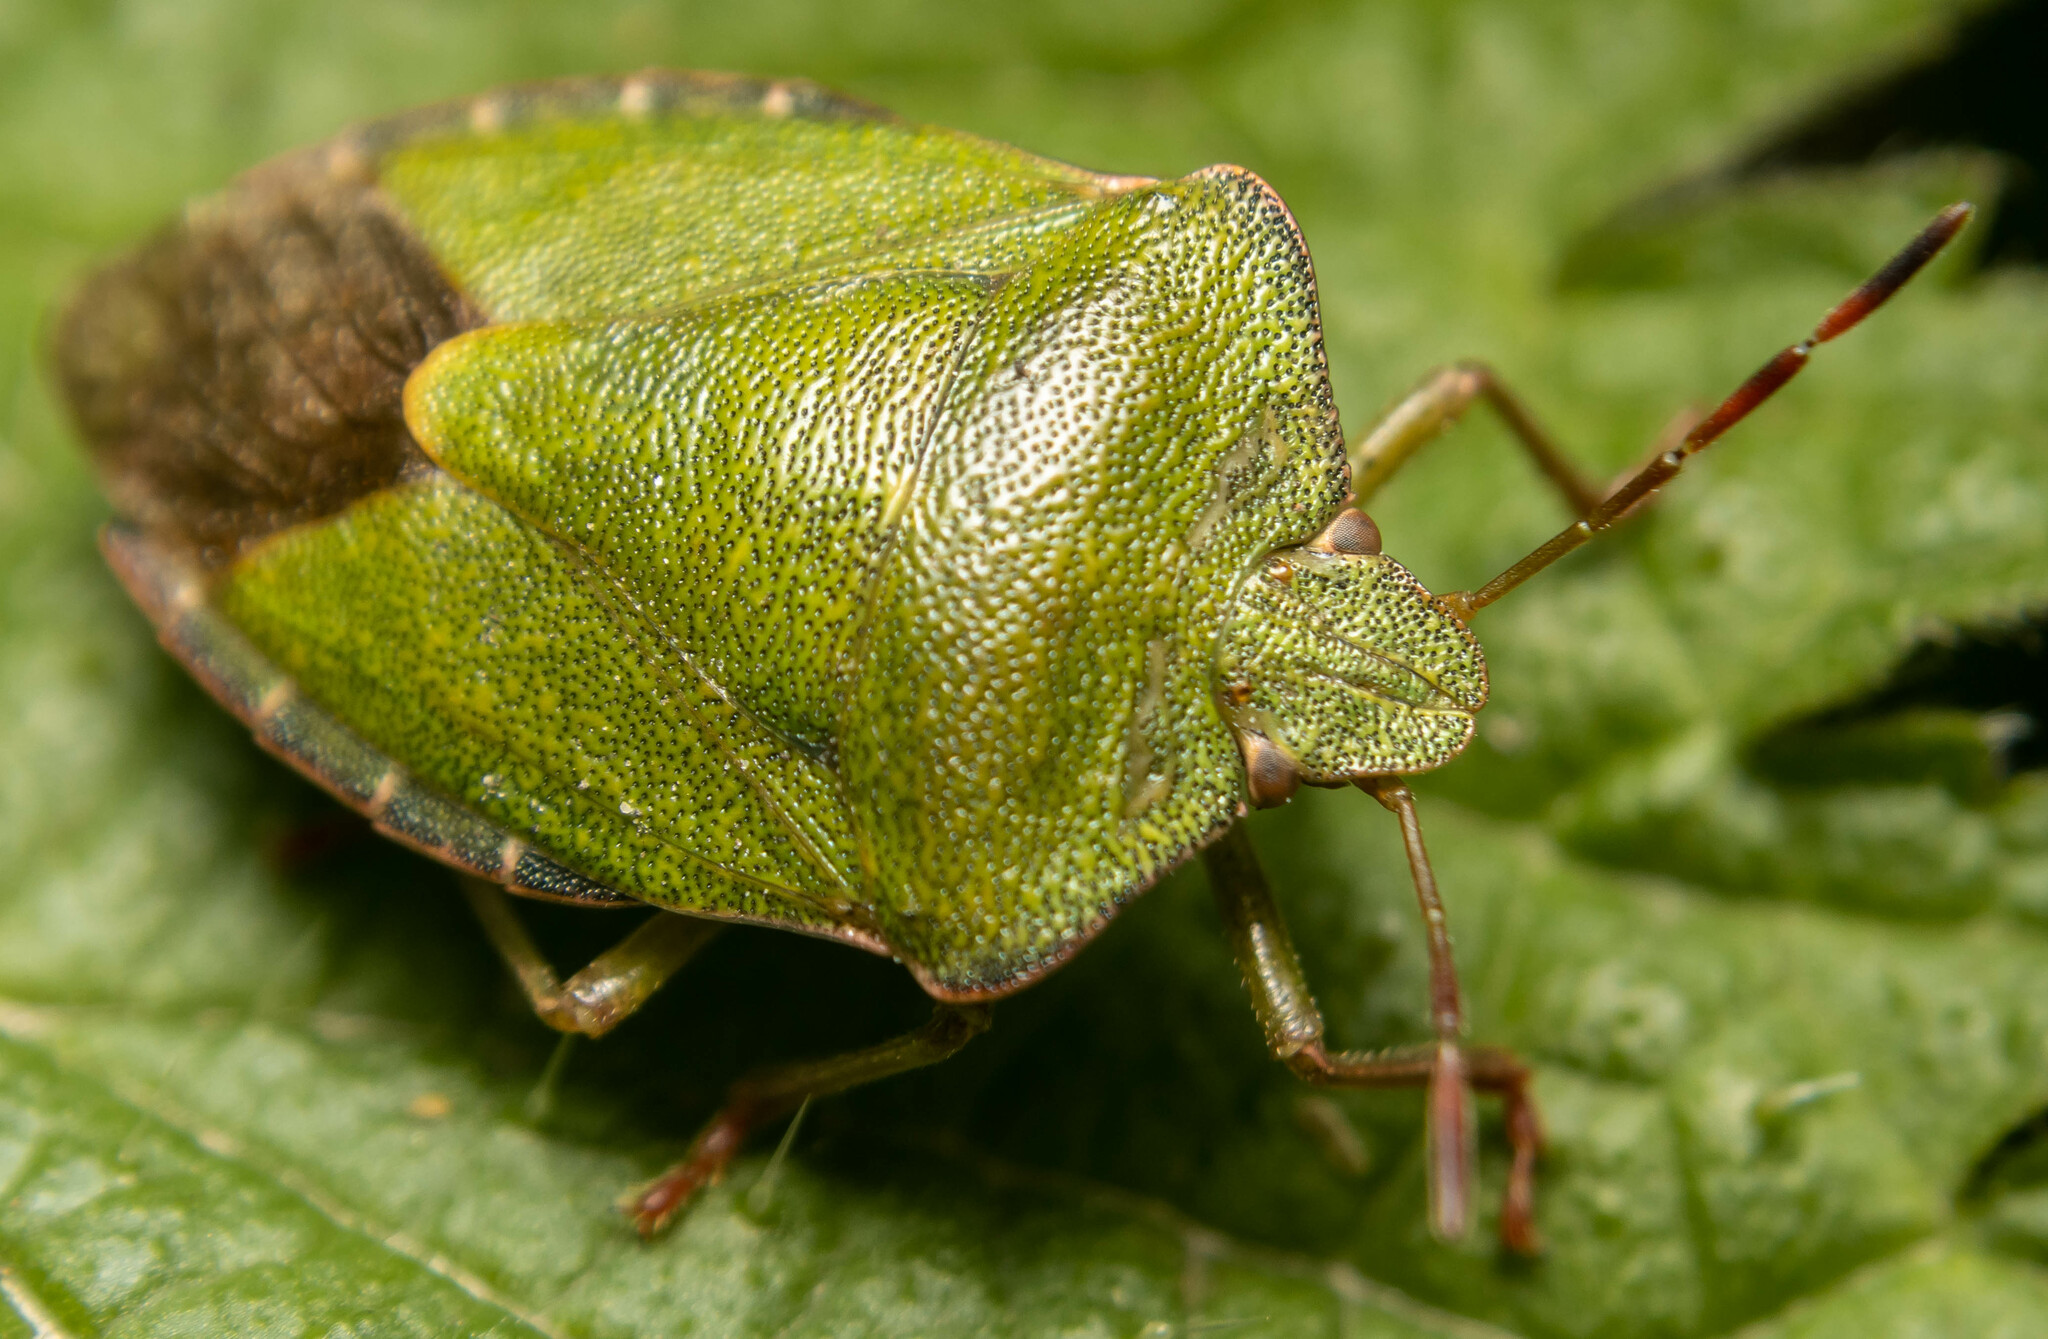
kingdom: Animalia
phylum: Arthropoda
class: Insecta
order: Hemiptera
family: Pentatomidae
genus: Palomena
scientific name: Palomena prasina
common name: Green shieldbug
